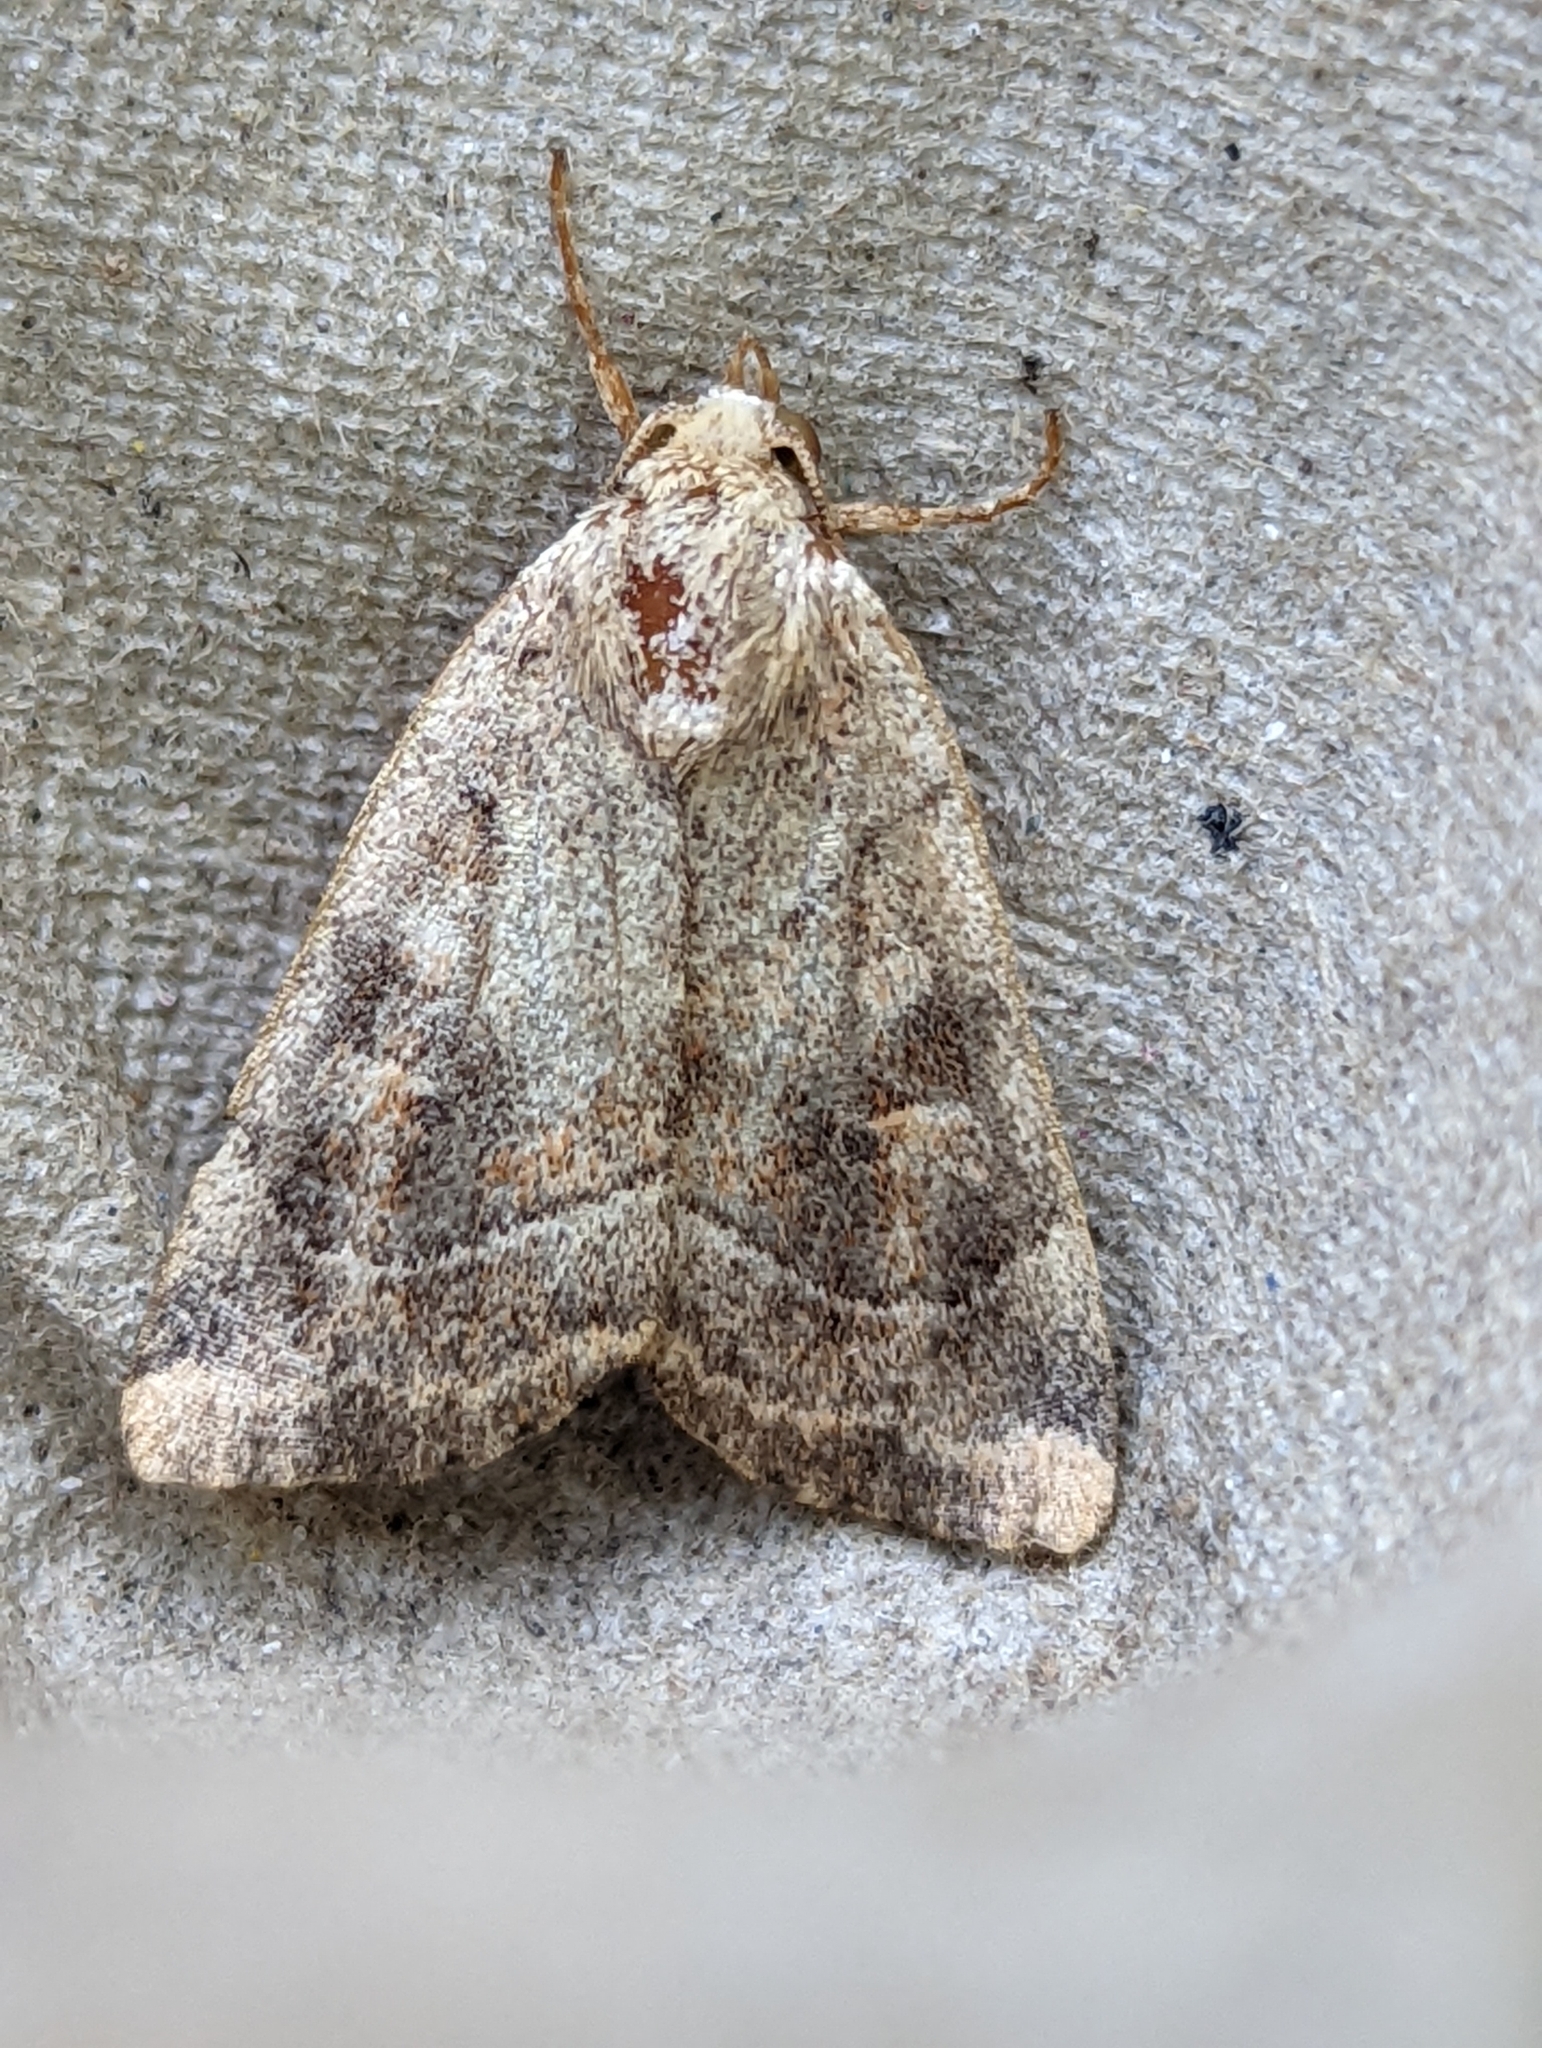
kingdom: Animalia
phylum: Arthropoda
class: Insecta
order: Lepidoptera
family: Noctuidae
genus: Cosmia
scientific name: Cosmia trapezina
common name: Dun-bar
